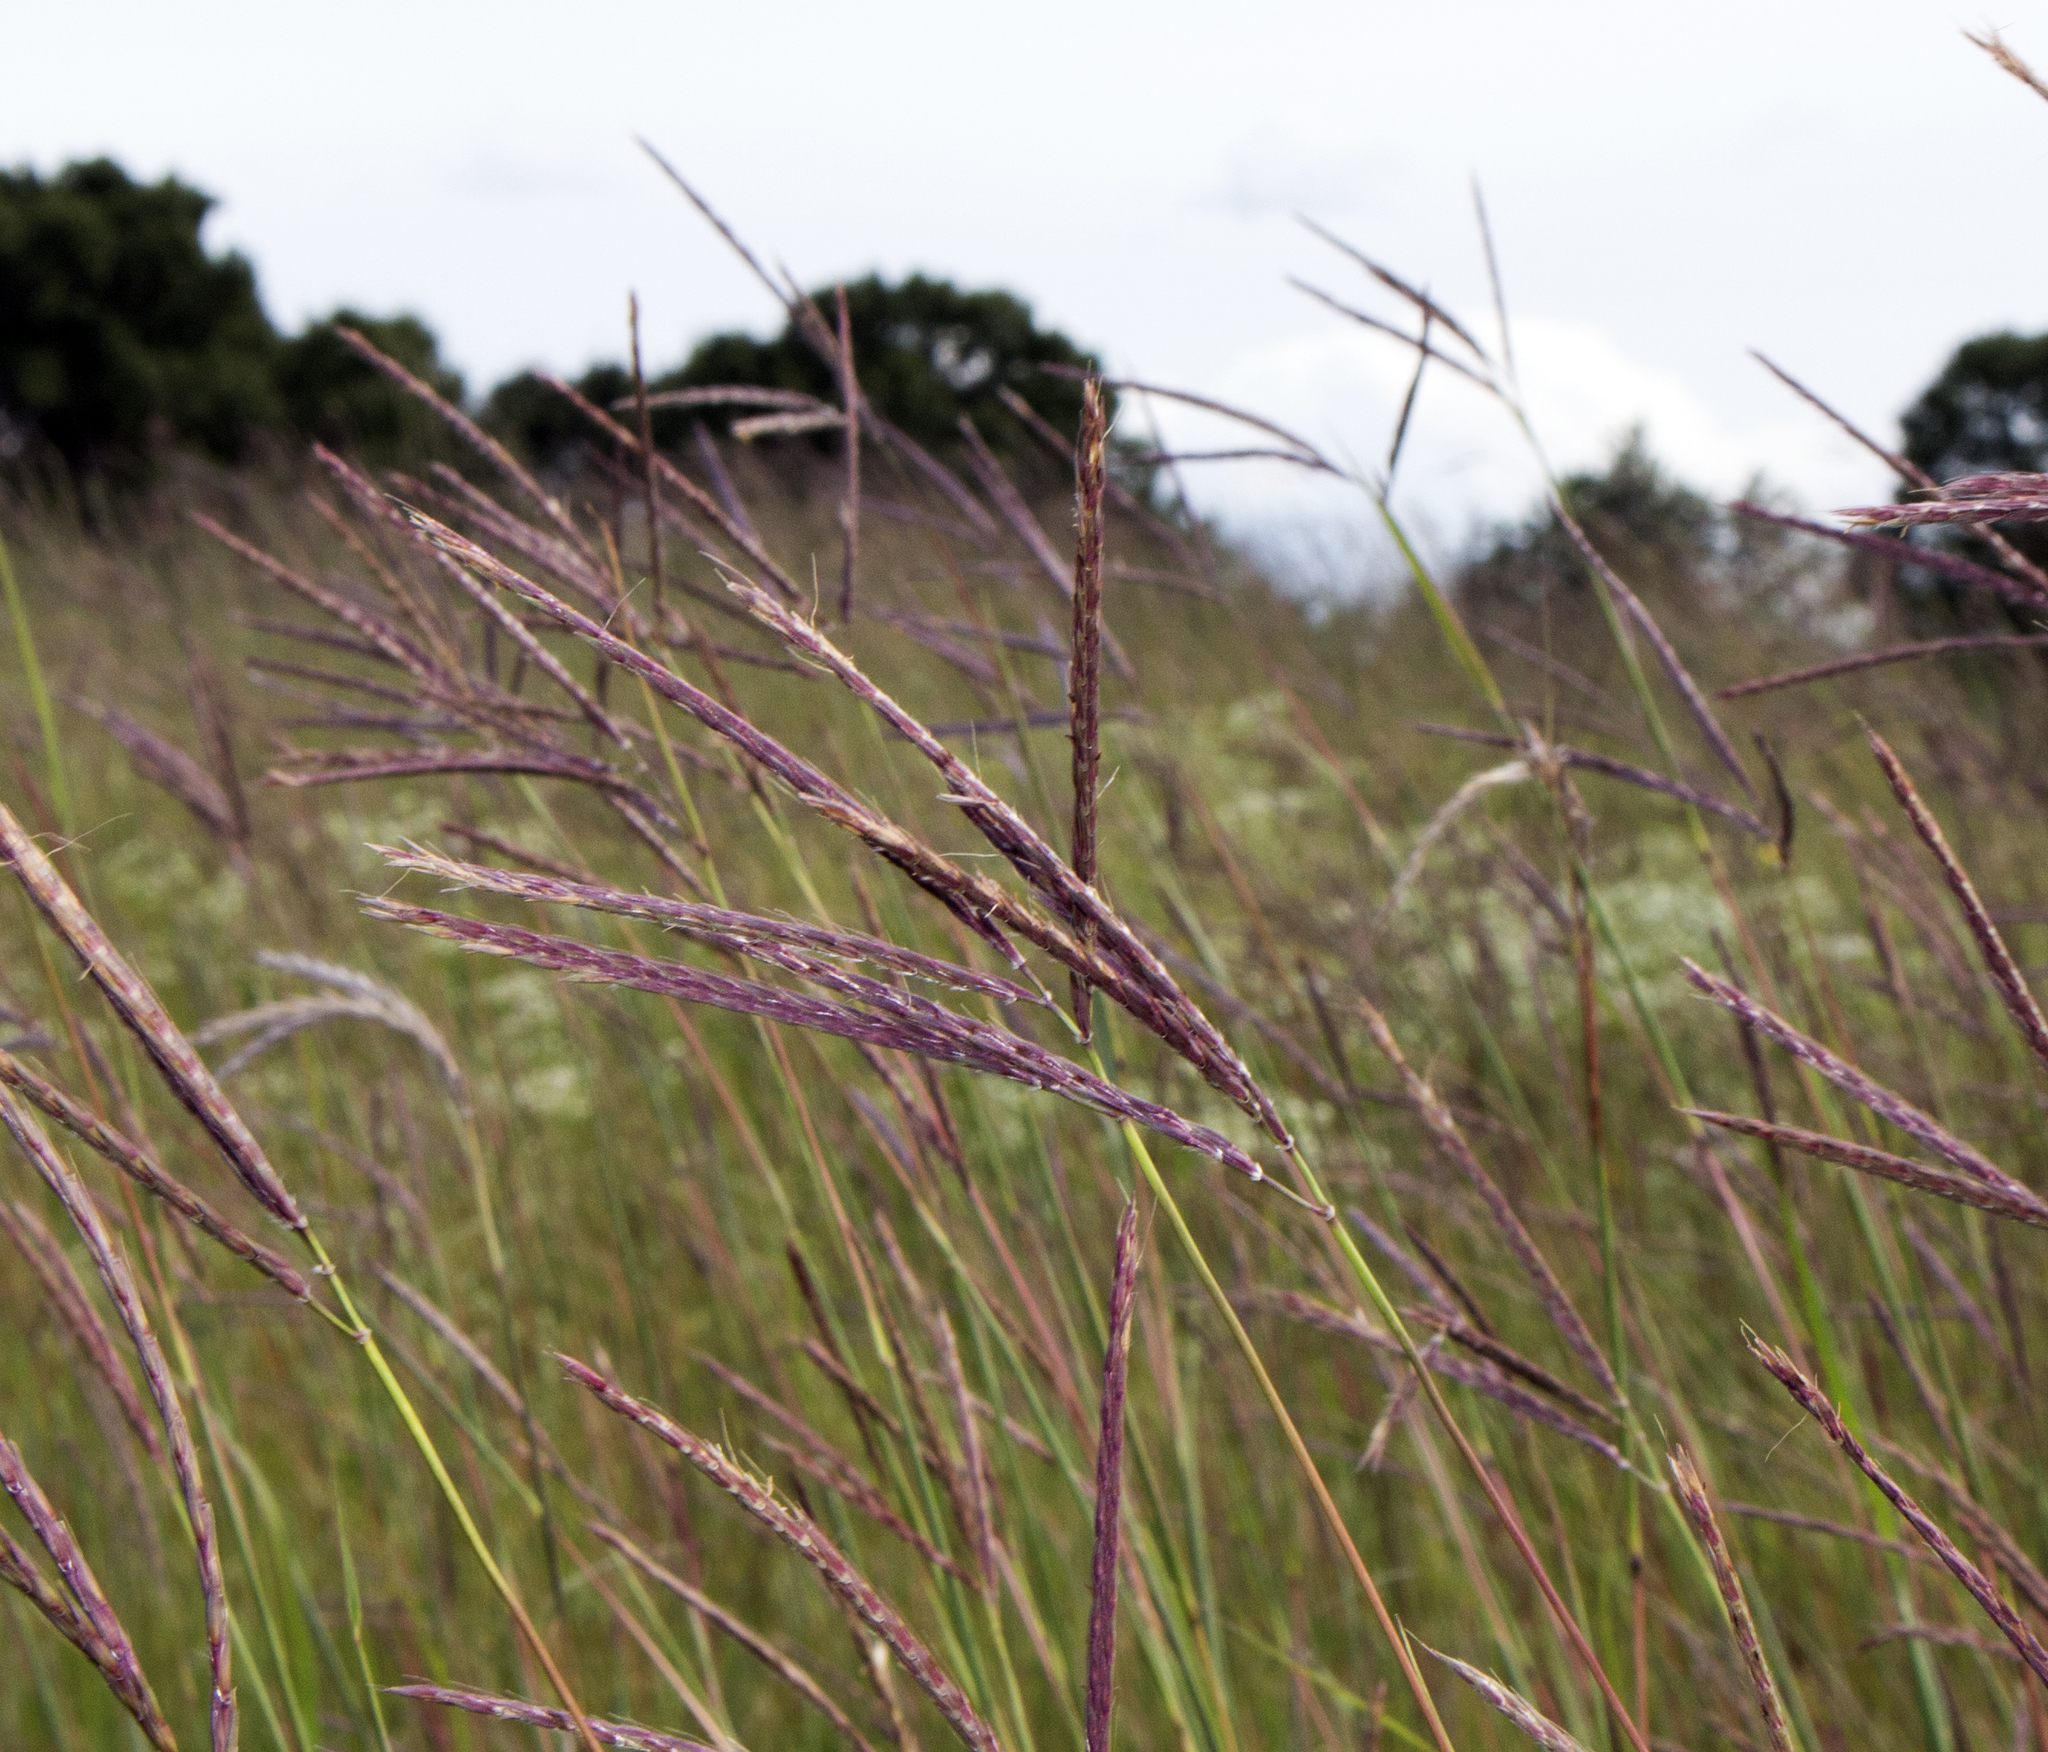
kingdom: Plantae
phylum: Tracheophyta
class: Liliopsida
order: Poales
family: Poaceae
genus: Andropogon
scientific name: Andropogon gerardi
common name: Big bluestem
